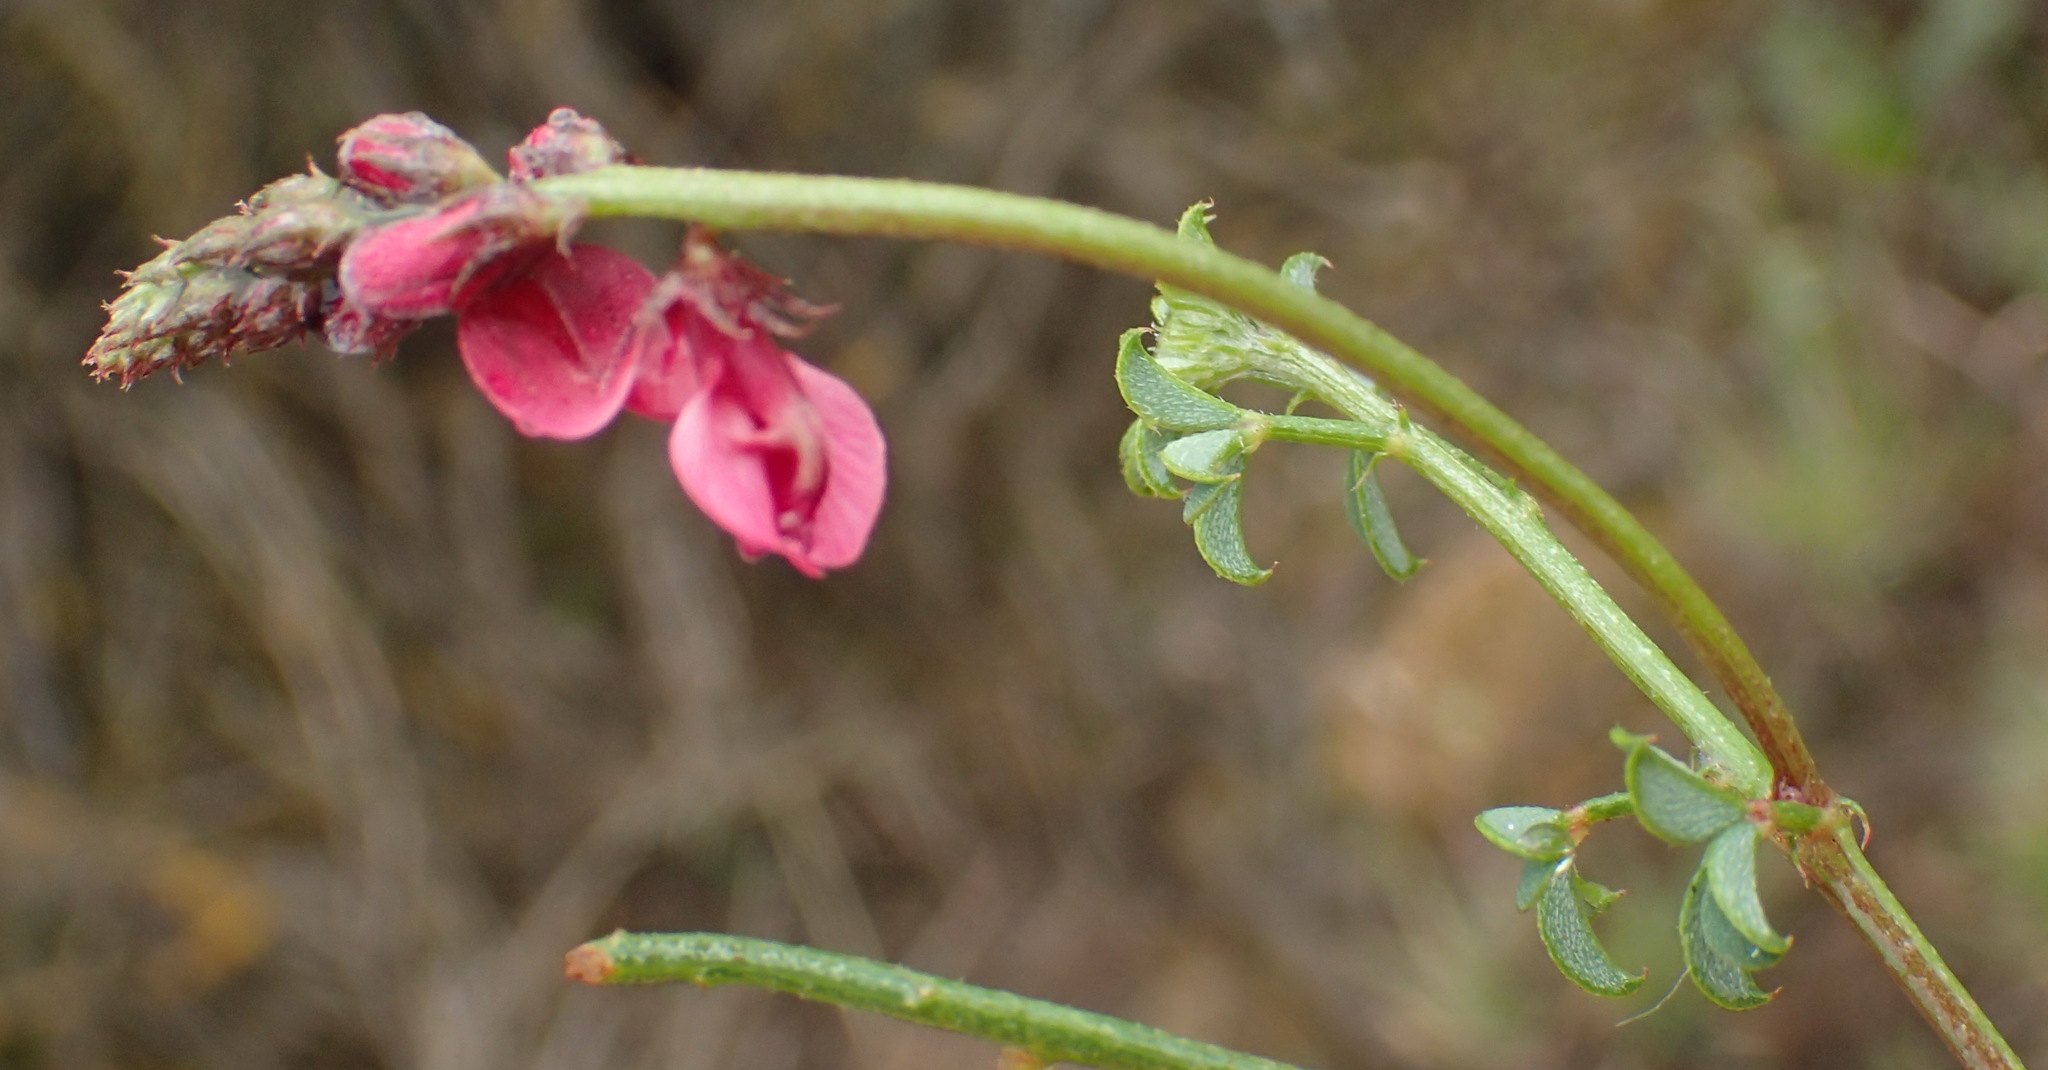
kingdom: Plantae
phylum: Tracheophyta
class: Magnoliopsida
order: Fabales
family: Fabaceae
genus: Indigofera
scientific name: Indigofera heterophylla
